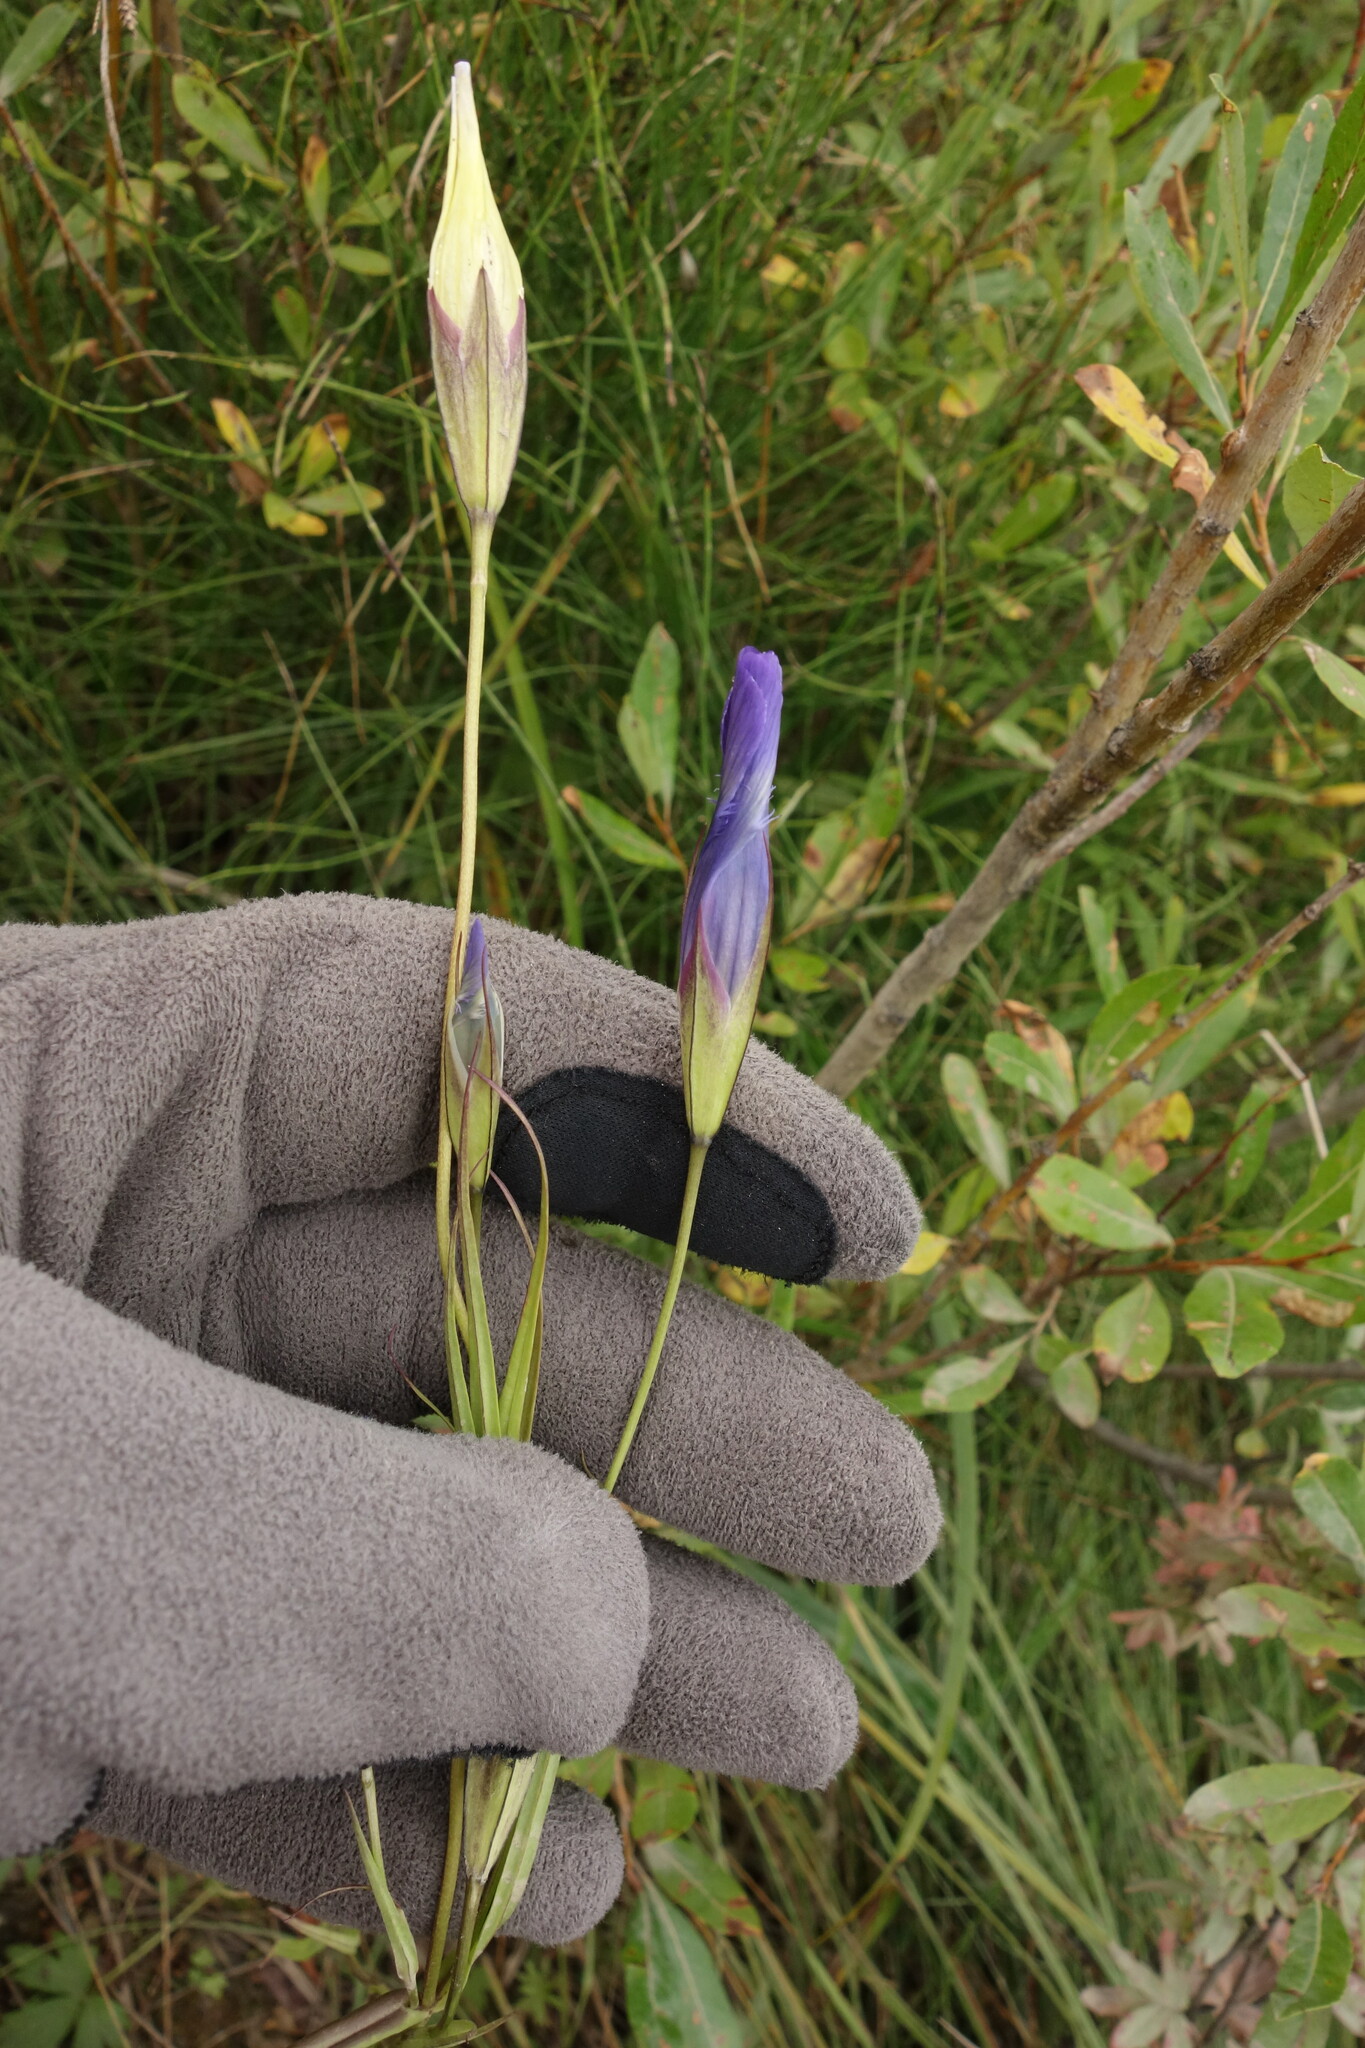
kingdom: Plantae
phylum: Tracheophyta
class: Magnoliopsida
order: Gentianales
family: Gentianaceae
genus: Gentianopsis
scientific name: Gentianopsis barbata
